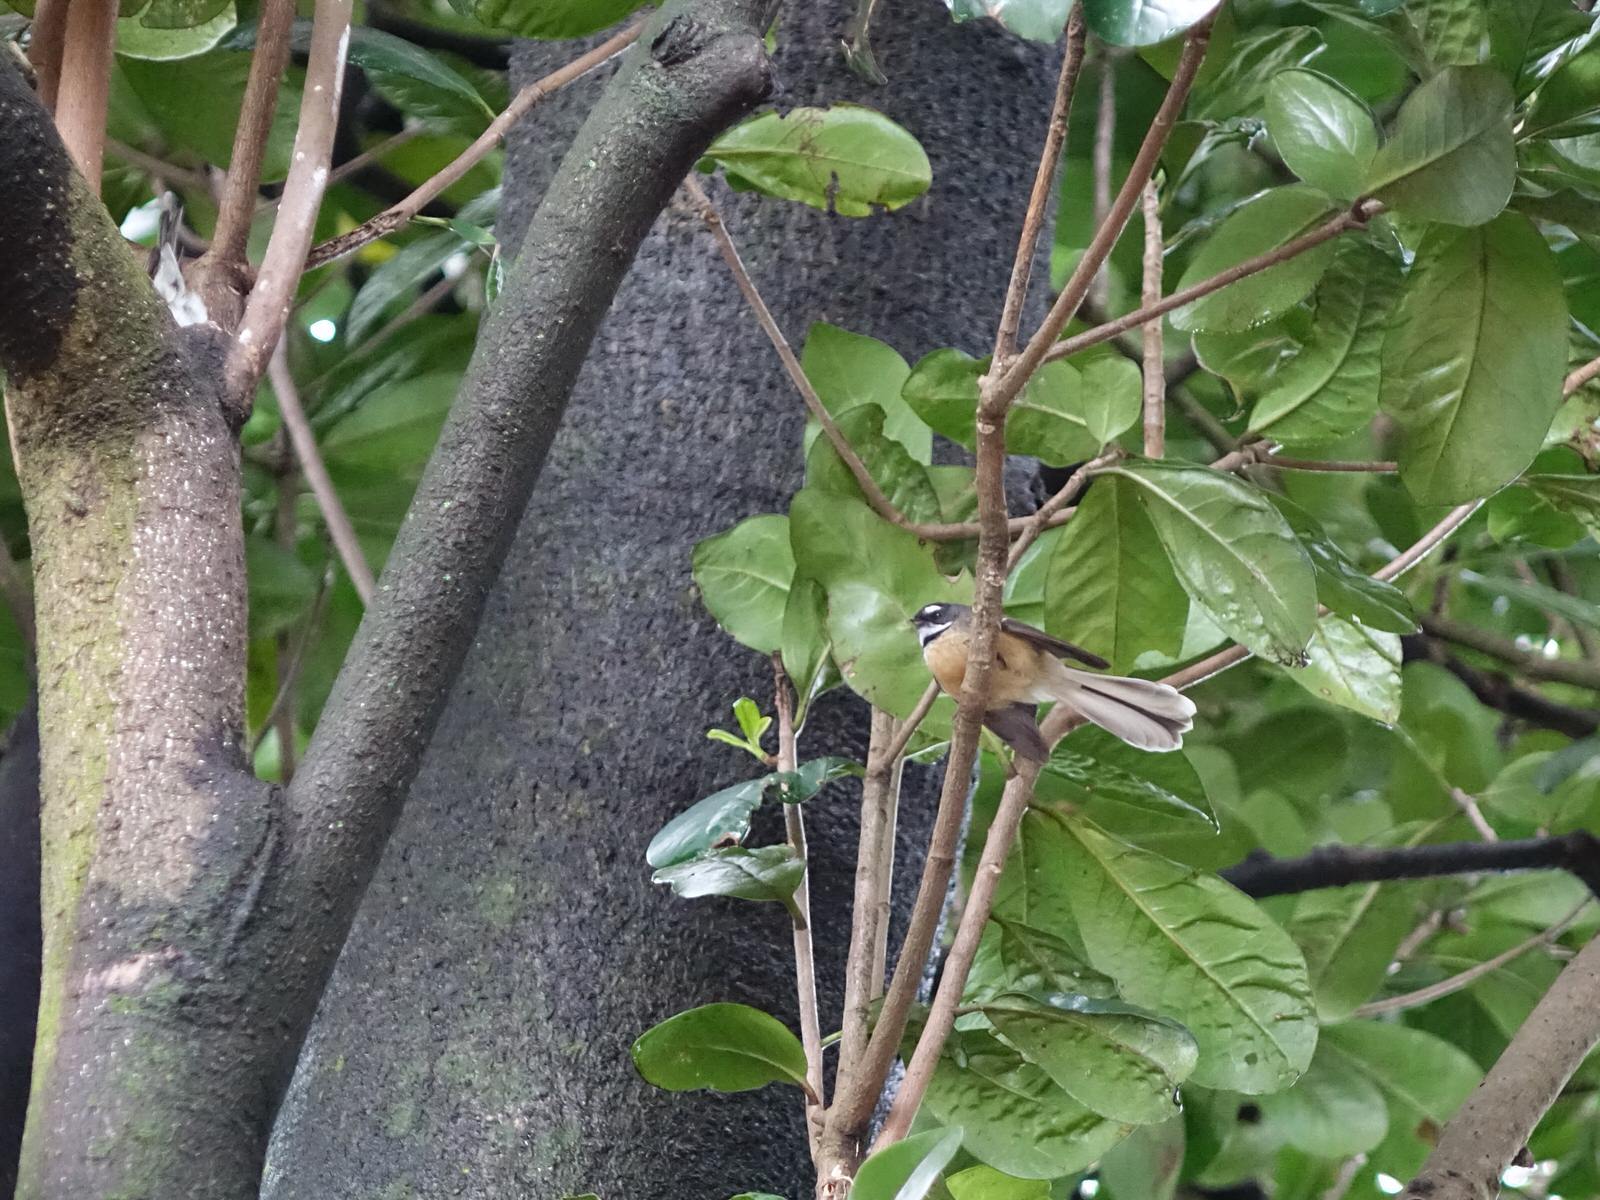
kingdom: Animalia
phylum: Chordata
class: Aves
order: Passeriformes
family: Rhipiduridae
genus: Rhipidura
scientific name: Rhipidura fuliginosa
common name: New zealand fantail
